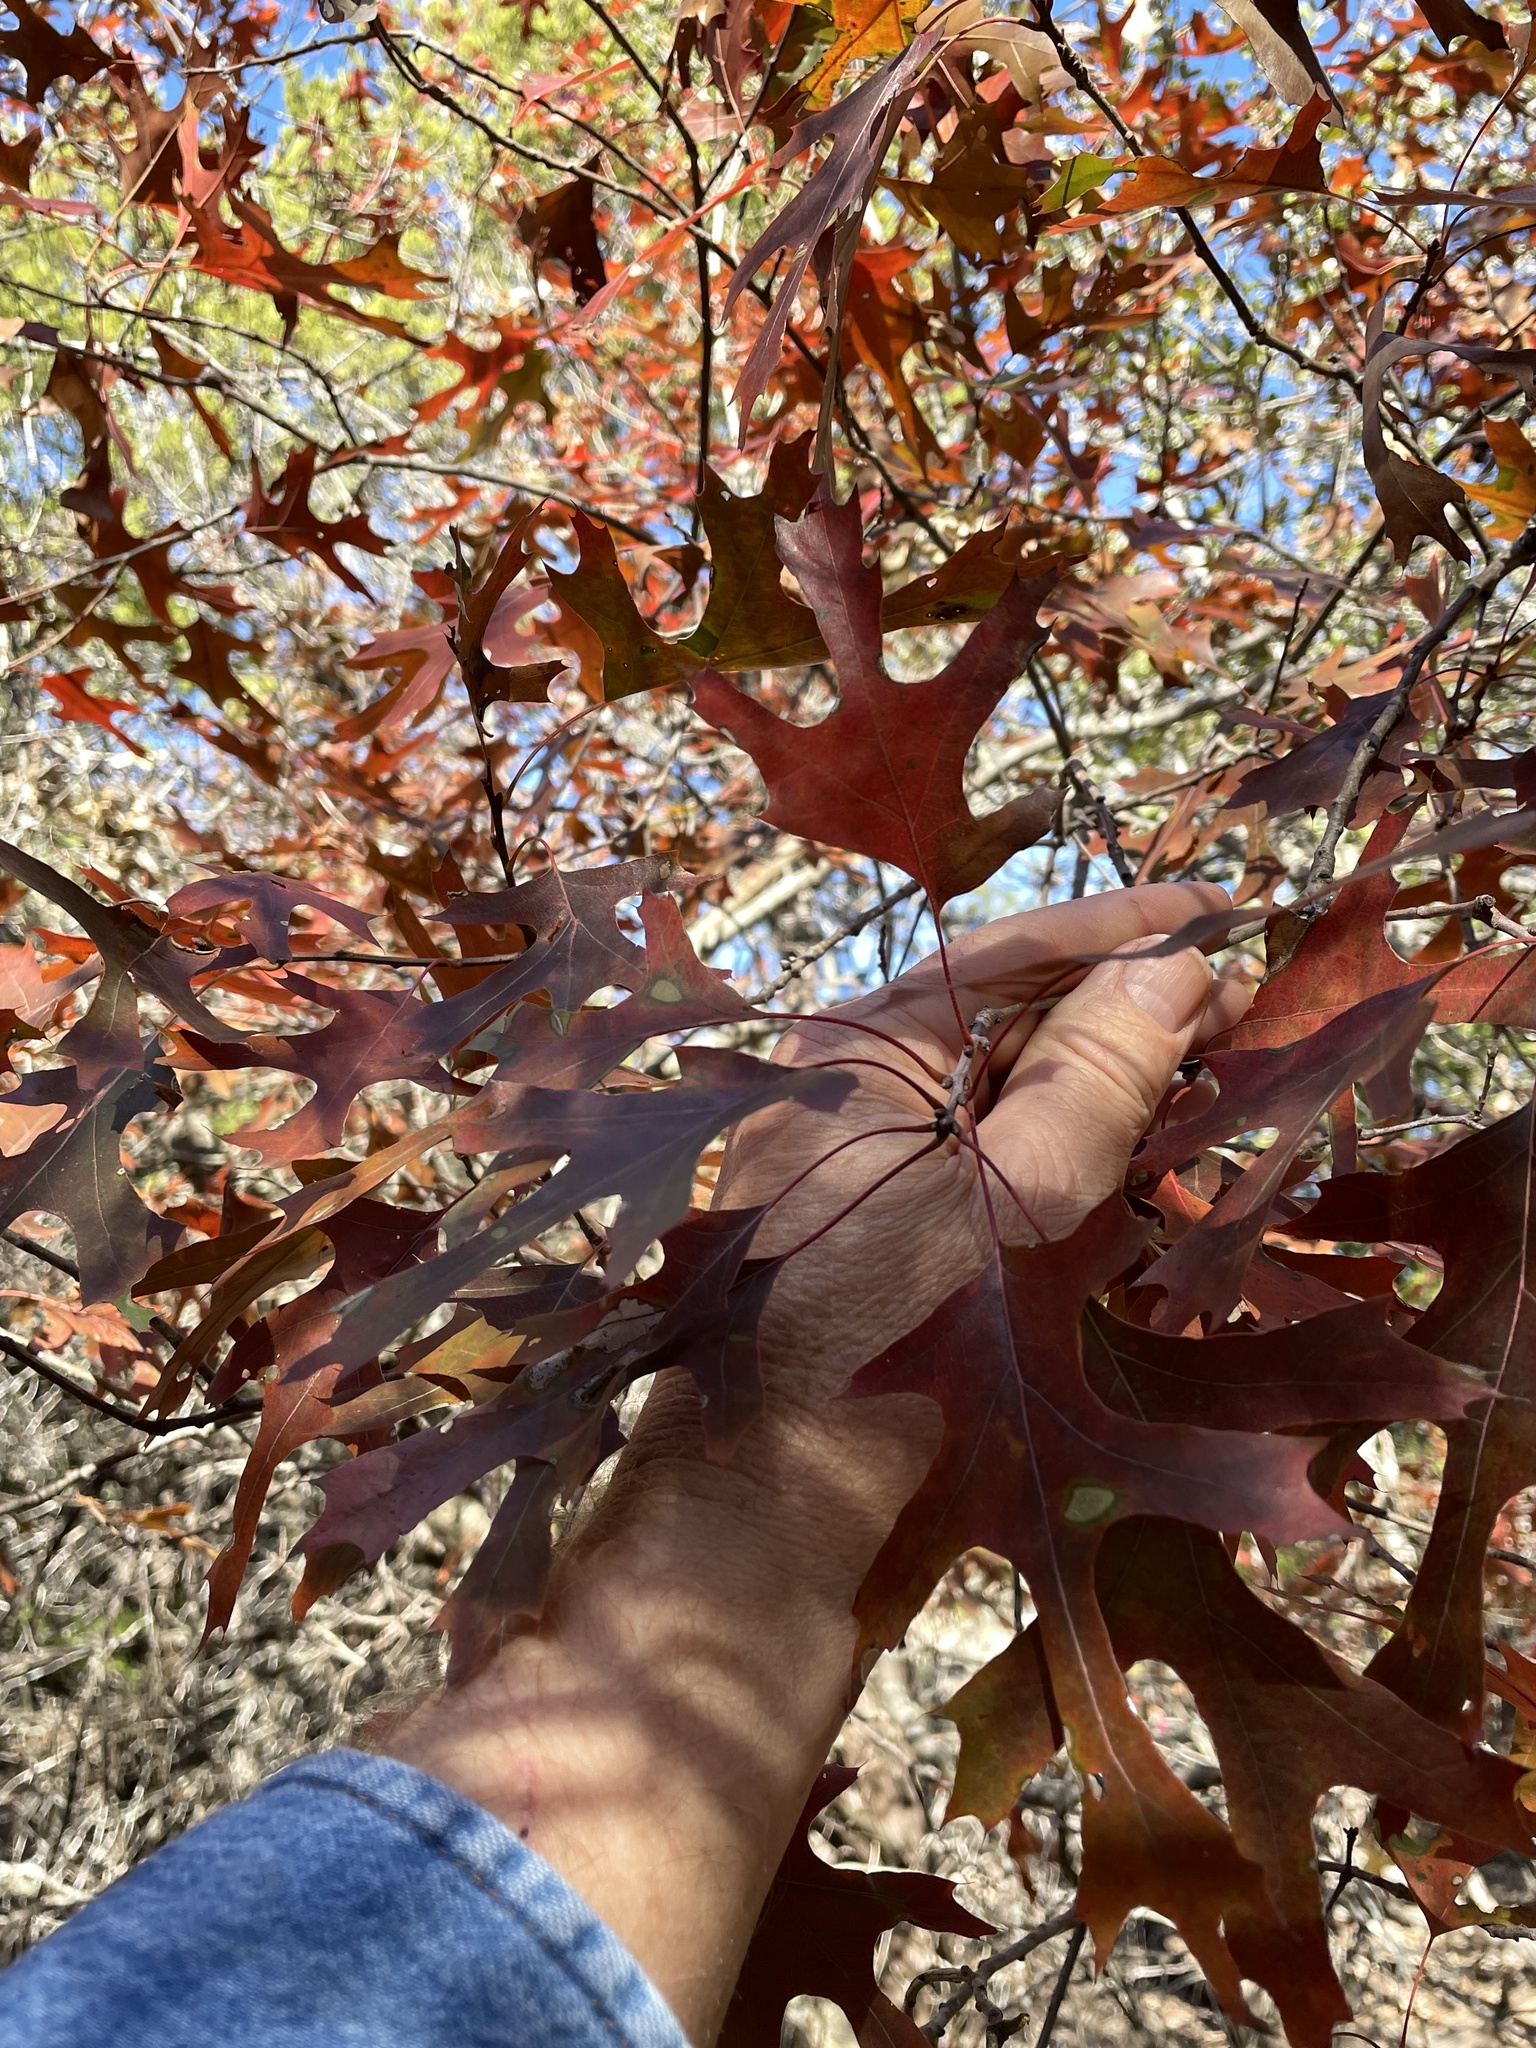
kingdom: Plantae
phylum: Tracheophyta
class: Magnoliopsida
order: Fagales
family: Fagaceae
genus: Quercus
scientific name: Quercus buckleyi
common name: Buckley oak
